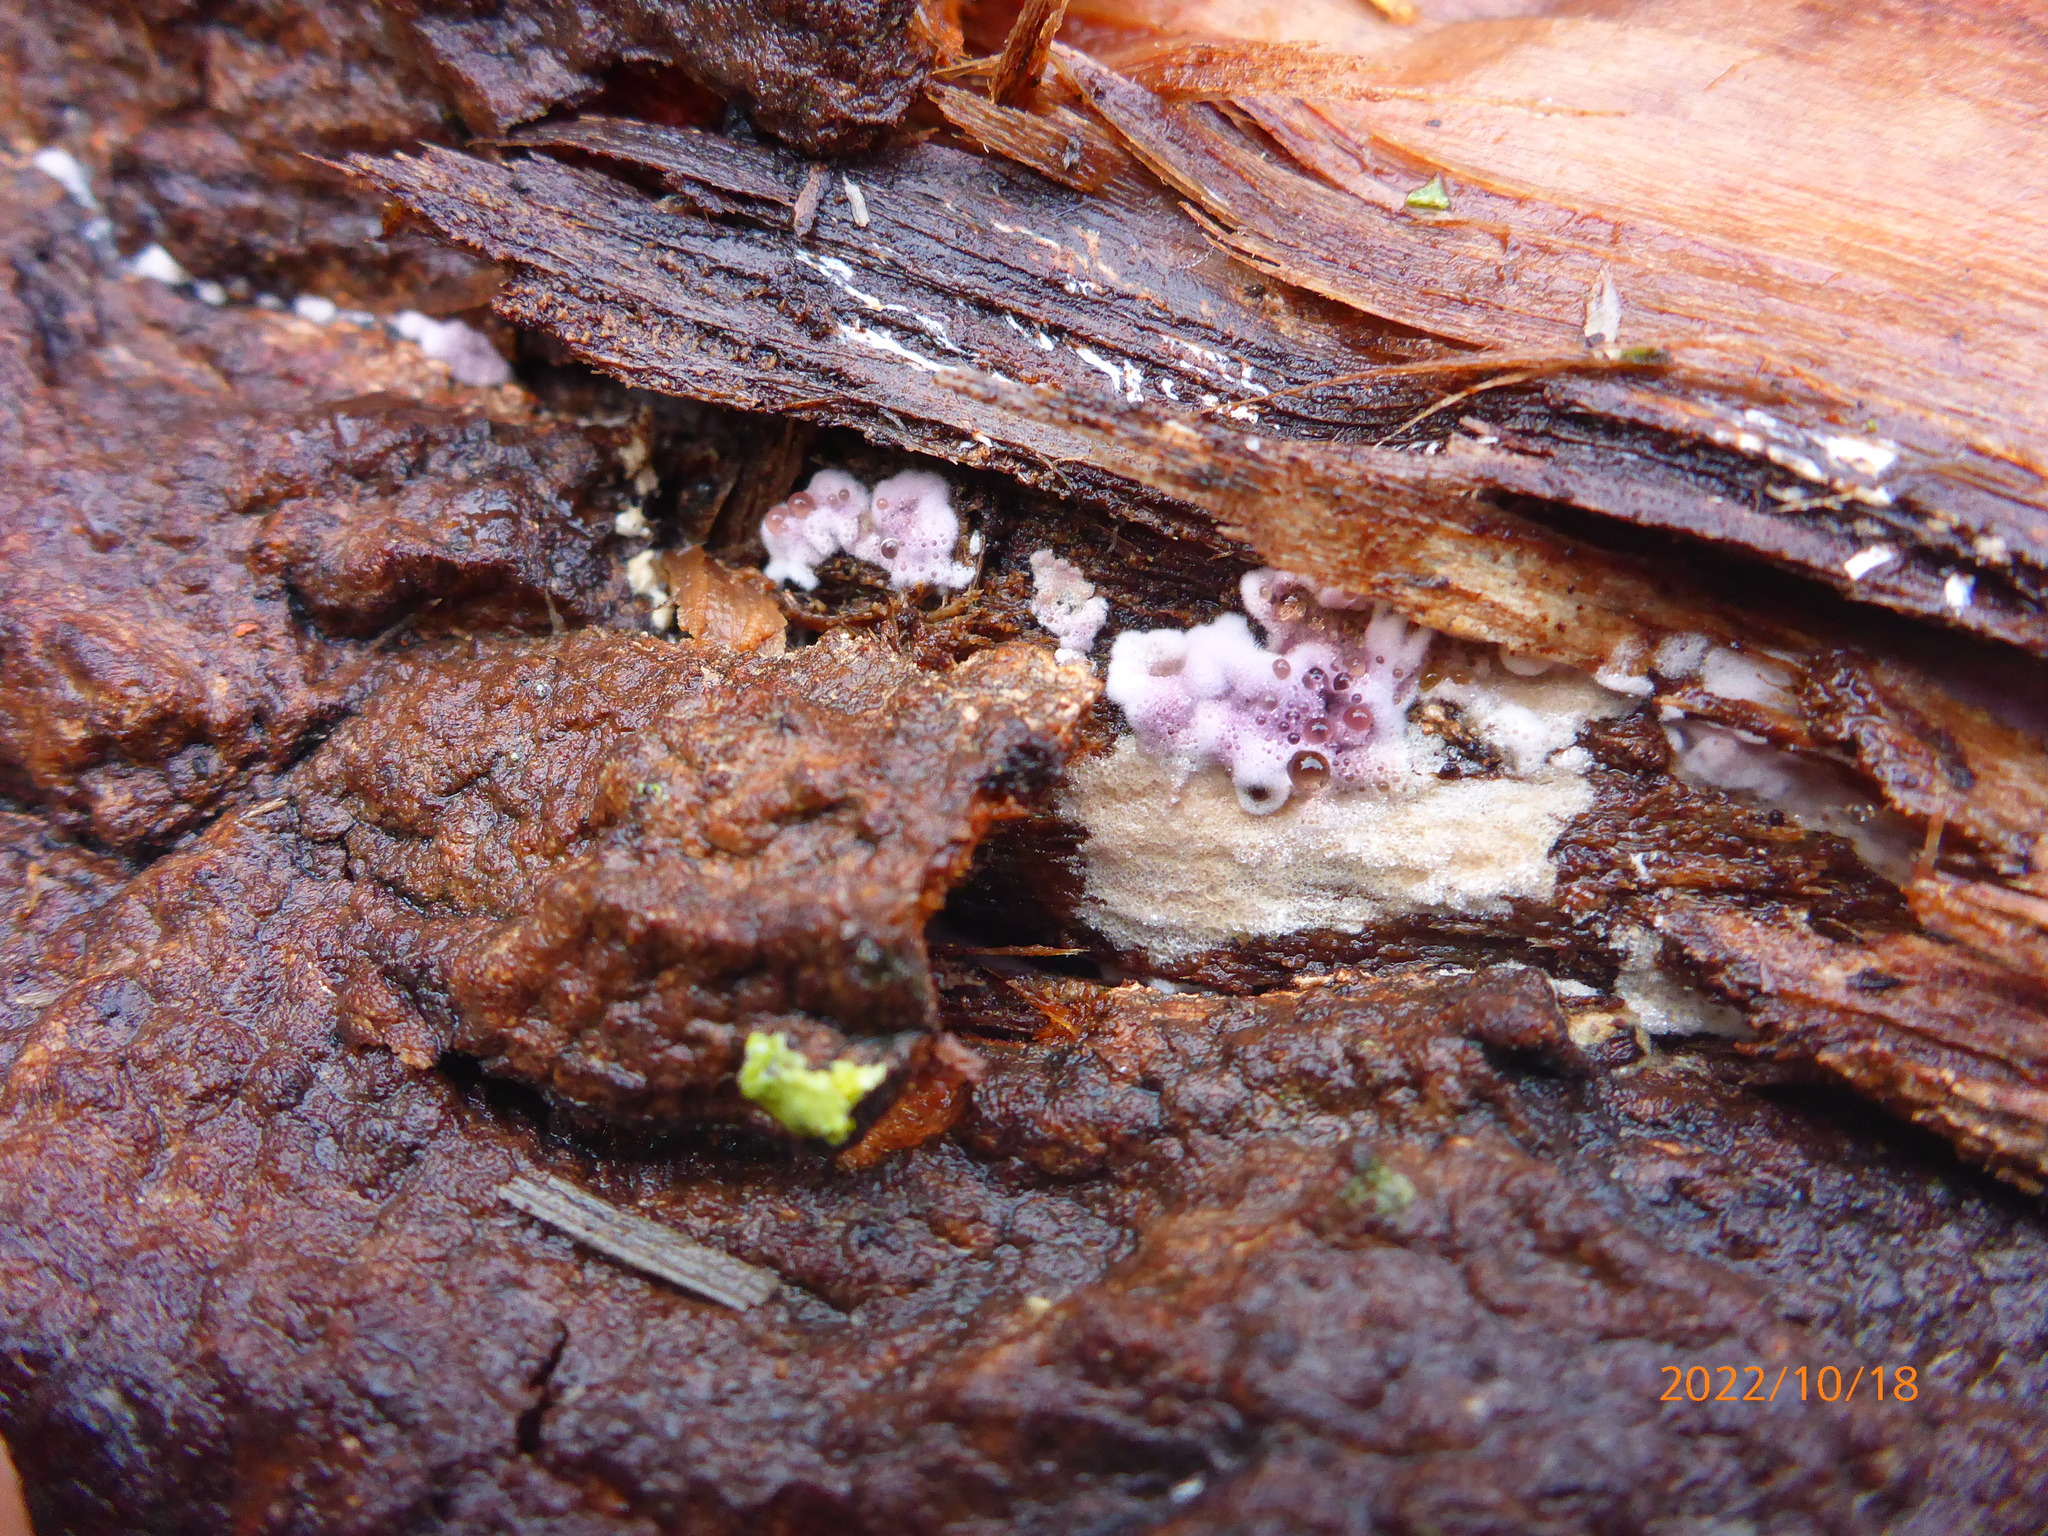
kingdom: Fungi
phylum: Basidiomycota
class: Agaricomycetes
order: Agaricales
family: Cyphellaceae
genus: Chondrostereum
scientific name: Chondrostereum purpureum
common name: Silver leaf disease
